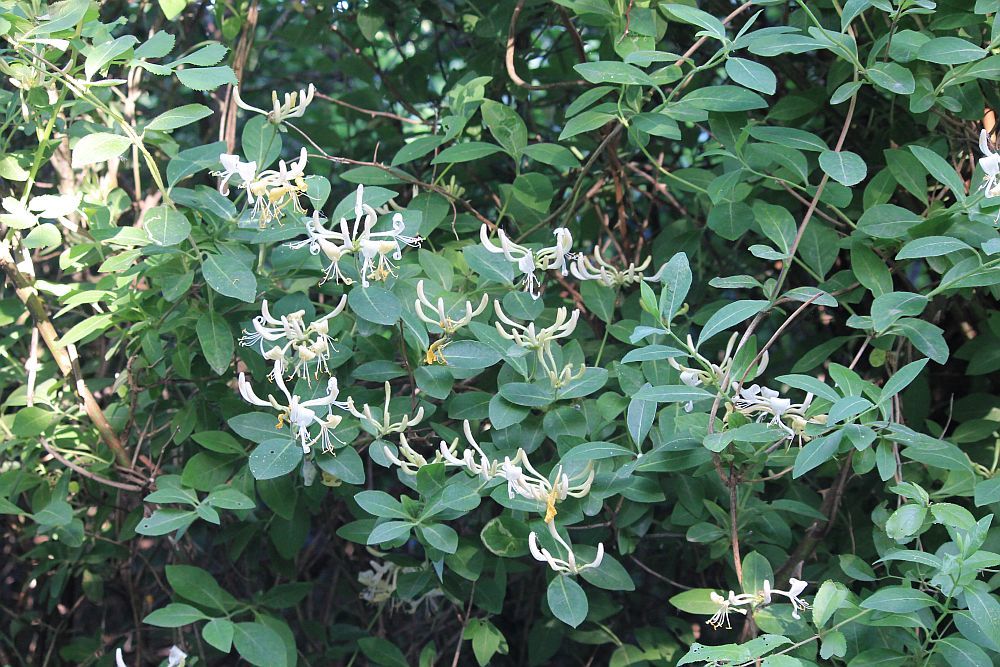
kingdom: Plantae
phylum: Tracheophyta
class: Magnoliopsida
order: Dipsacales
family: Caprifoliaceae
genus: Lonicera
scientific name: Lonicera periclymenum
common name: European honeysuckle
